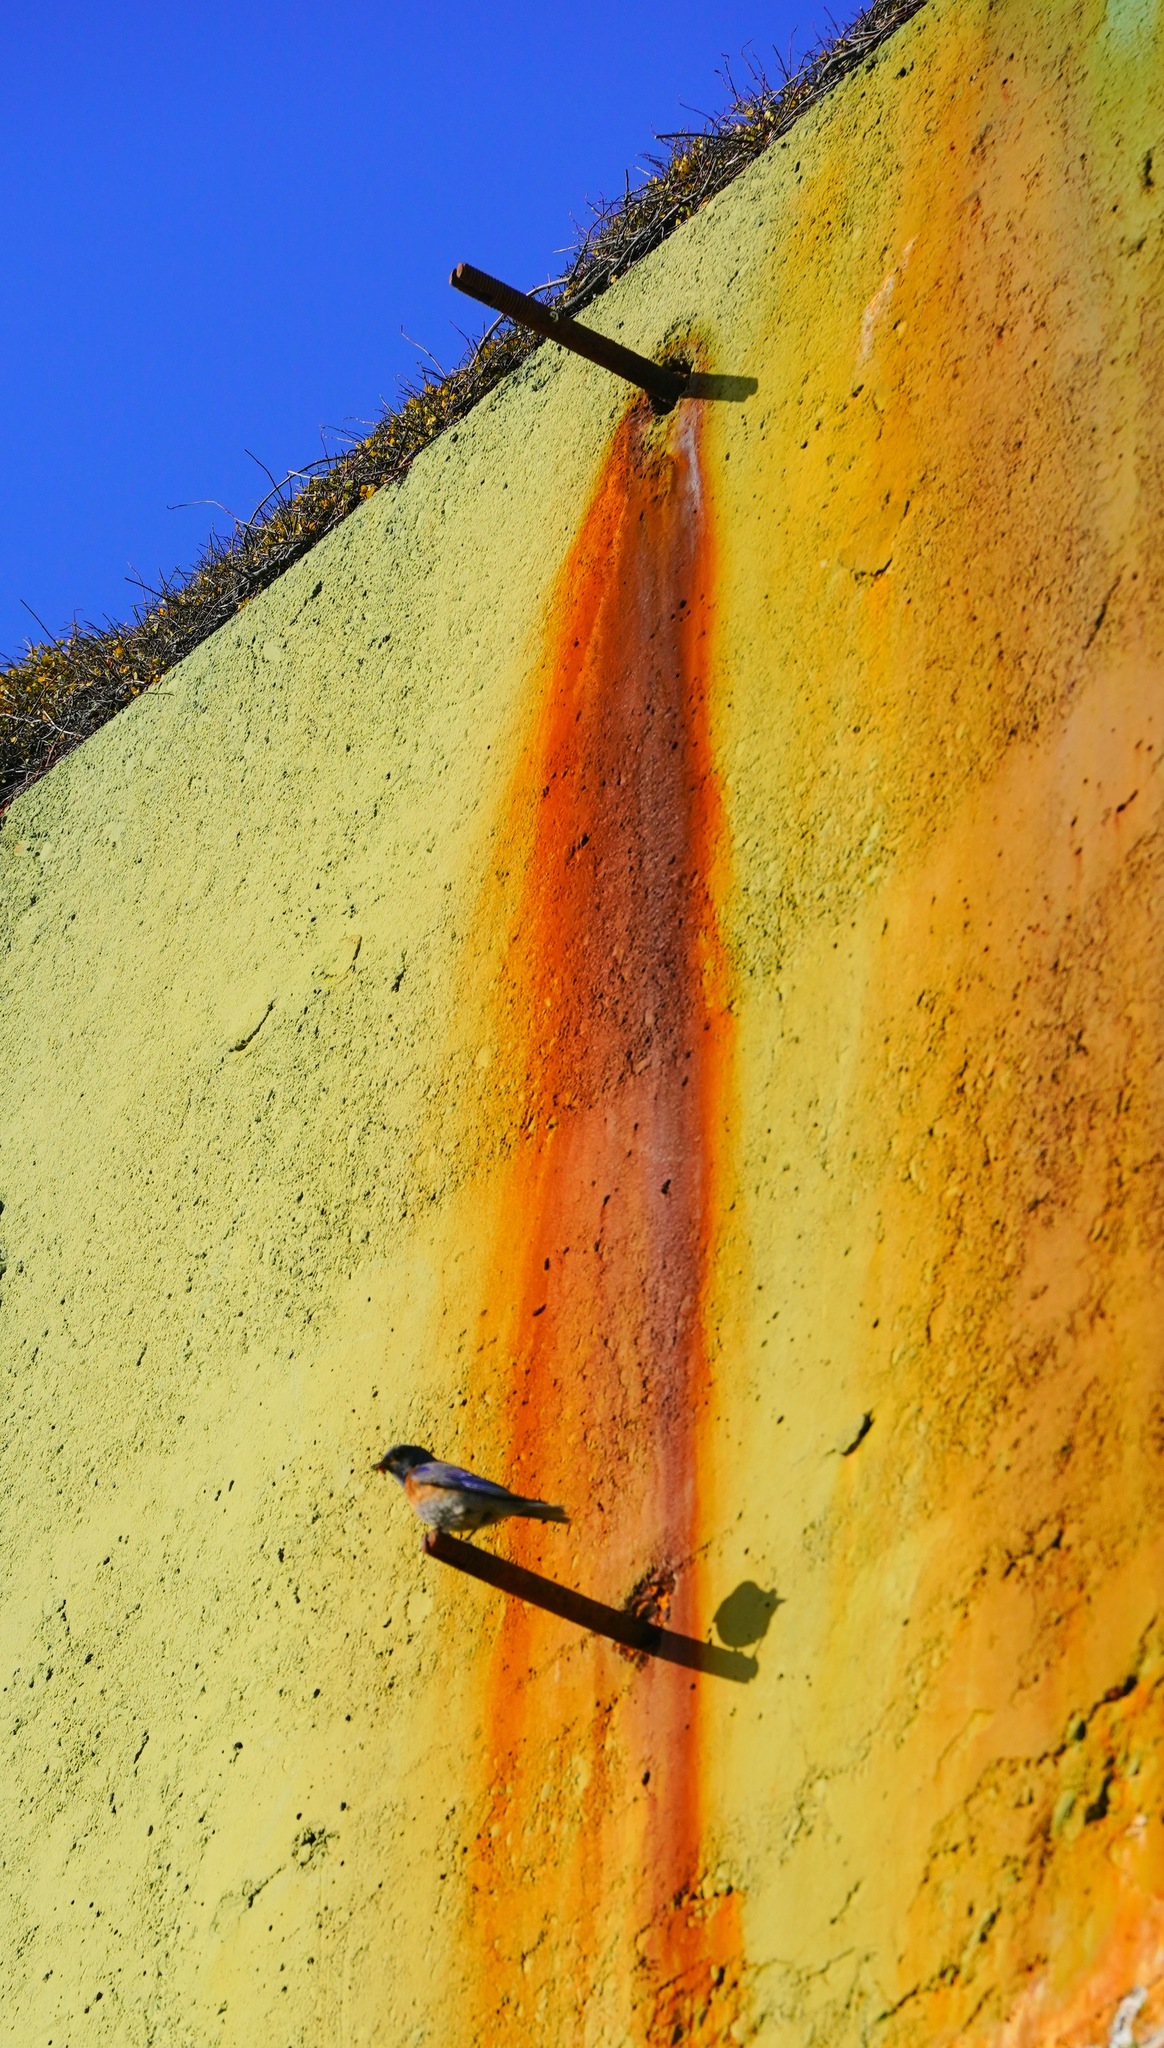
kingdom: Animalia
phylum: Chordata
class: Aves
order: Passeriformes
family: Turdidae
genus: Sialia
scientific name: Sialia mexicana
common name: Western bluebird
